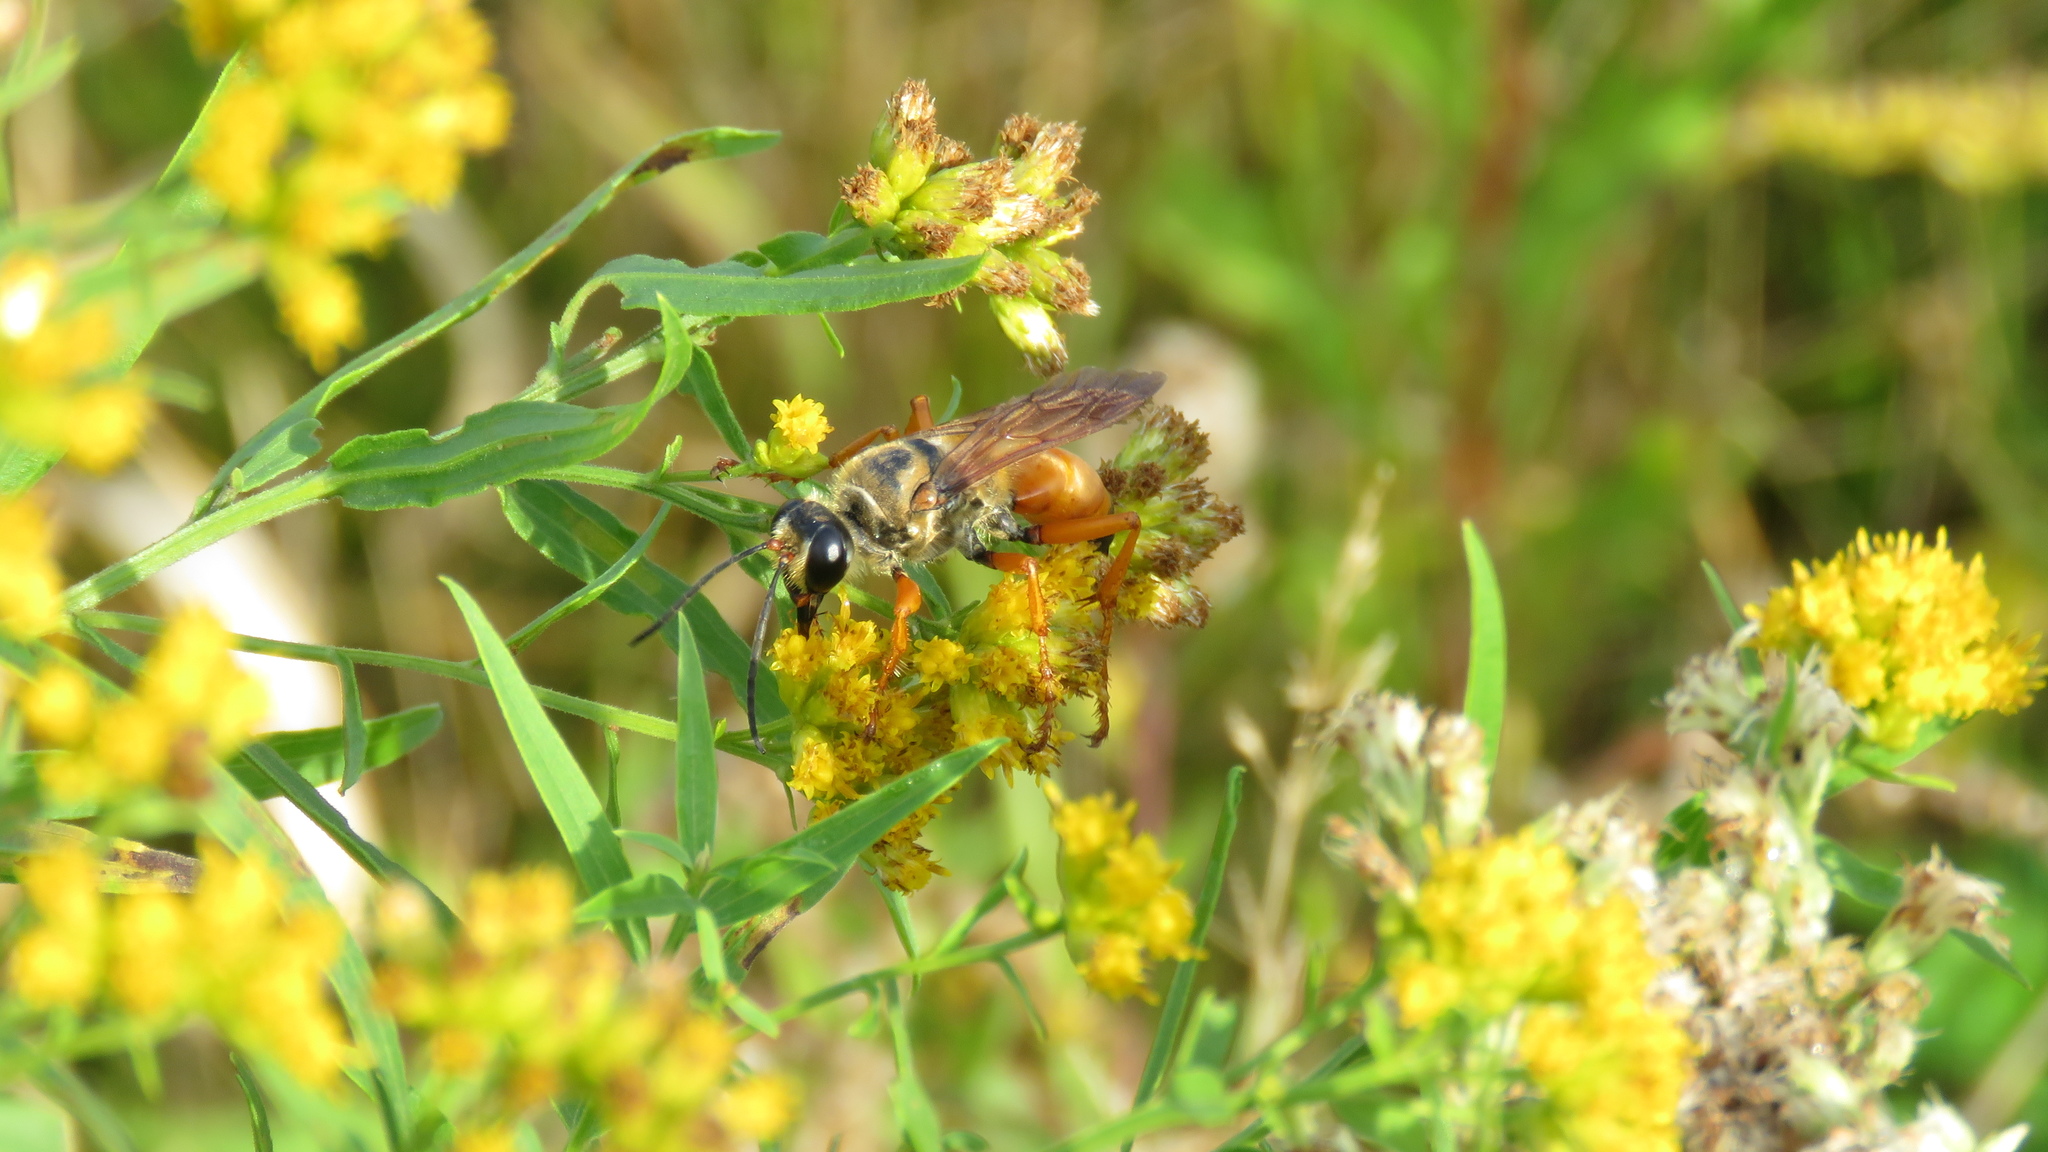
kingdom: Animalia
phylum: Arthropoda
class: Insecta
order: Hymenoptera
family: Sphecidae
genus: Sphex
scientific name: Sphex ichneumoneus
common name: Great golden digger wasp
